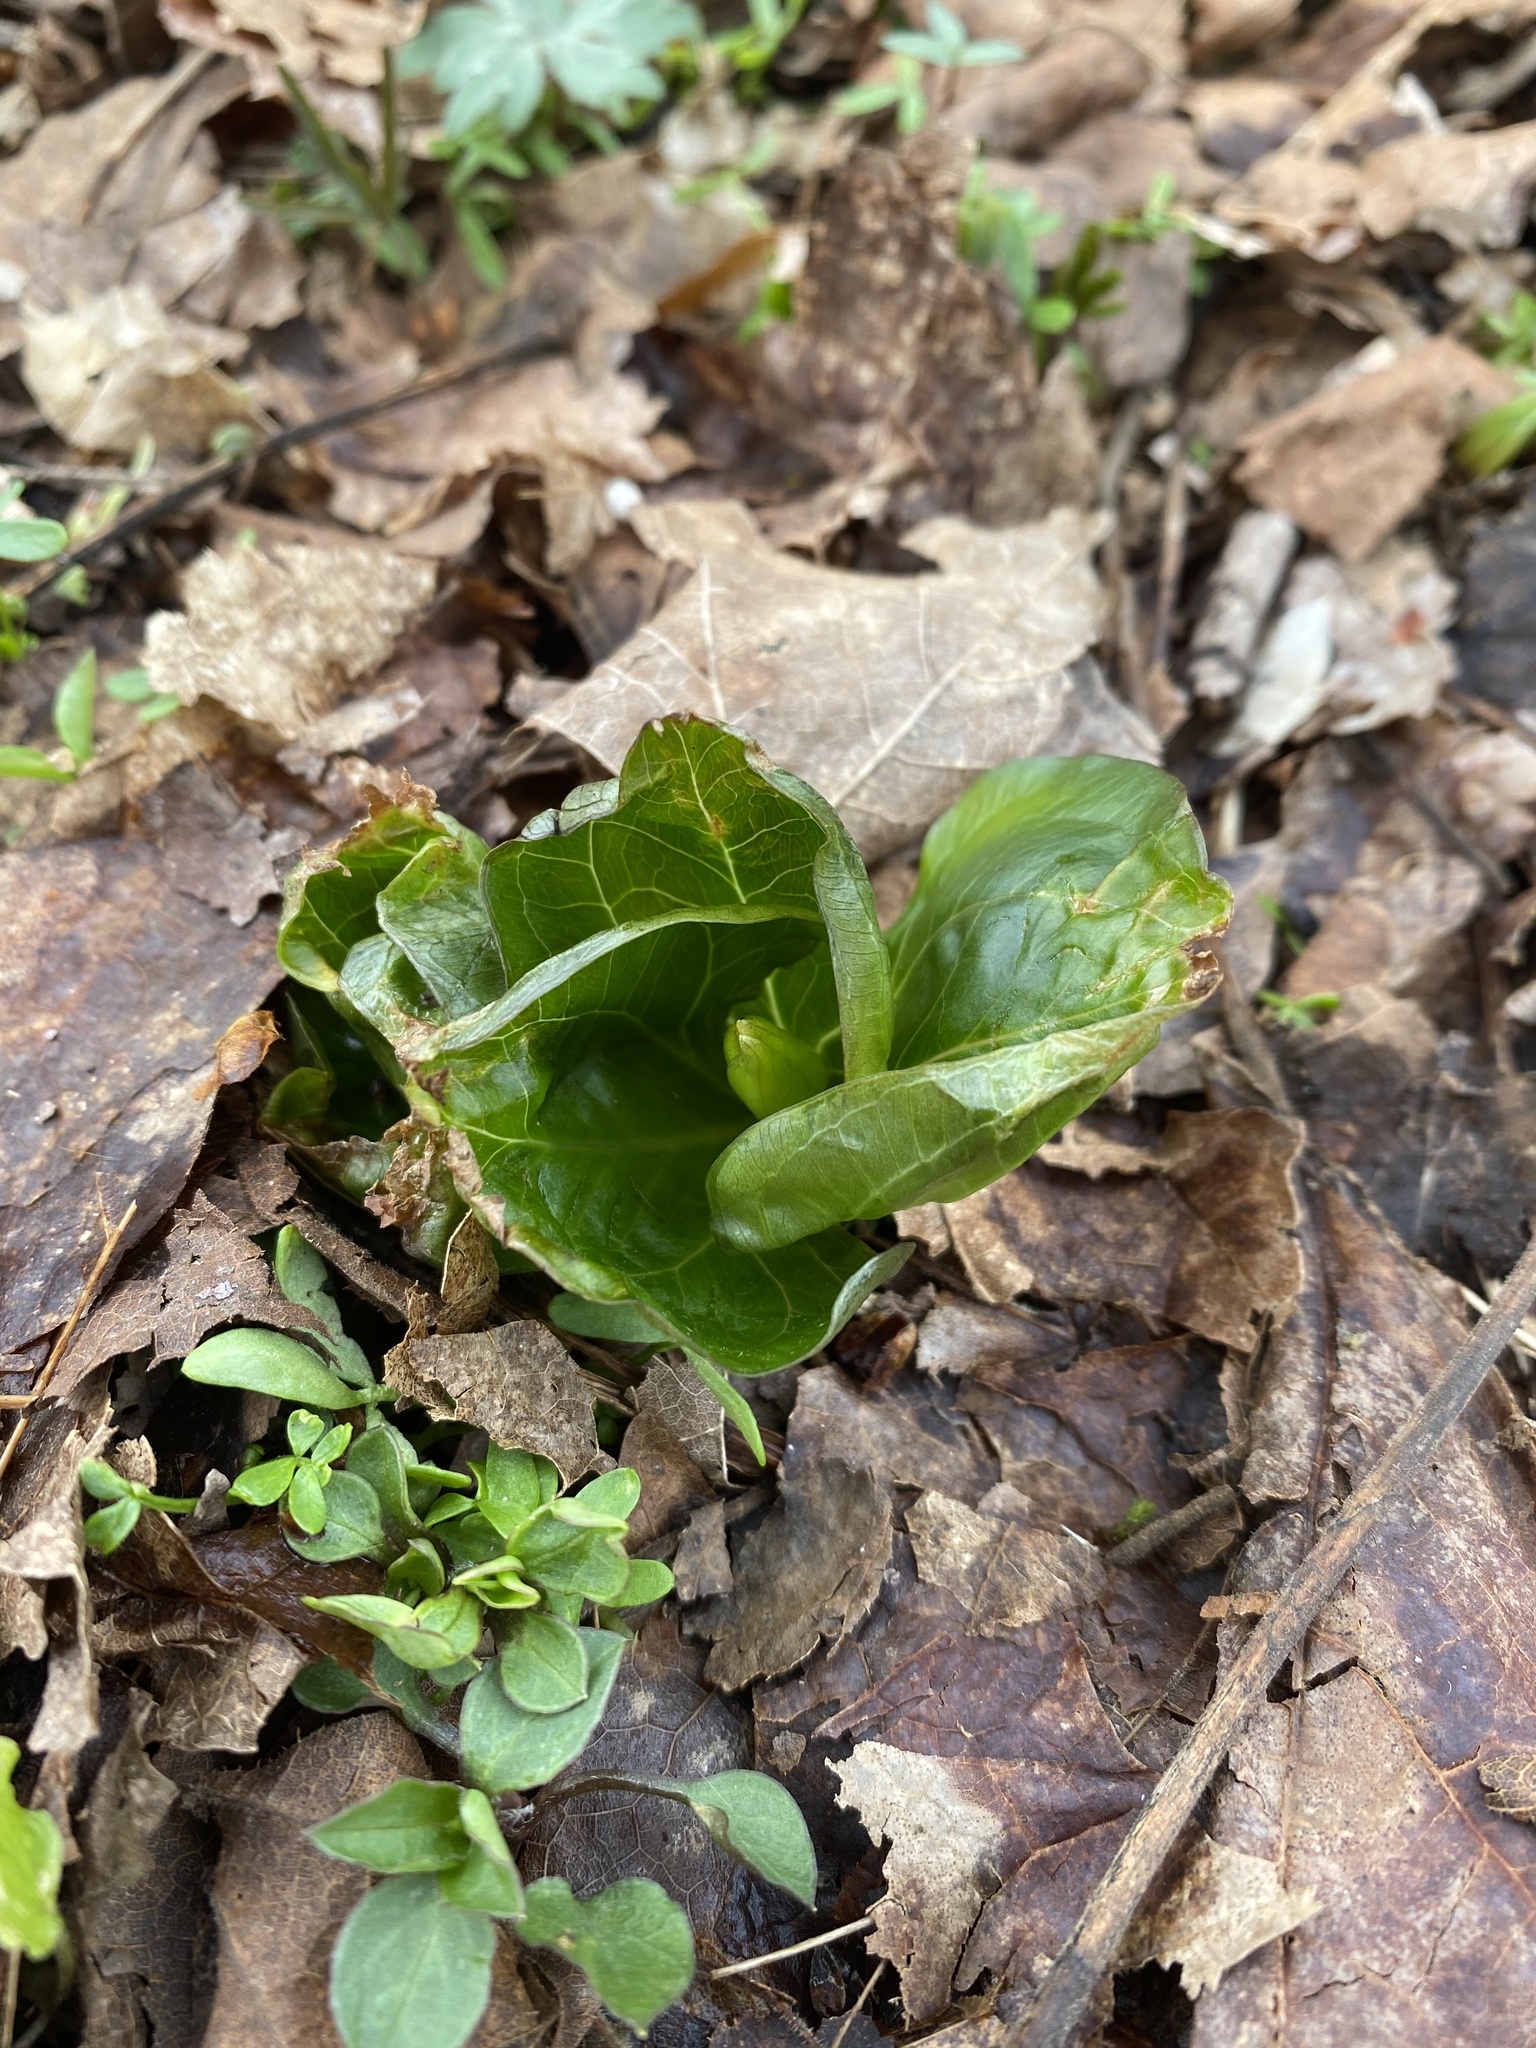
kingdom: Plantae
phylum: Tracheophyta
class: Liliopsida
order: Liliales
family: Melanthiaceae
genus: Trillium
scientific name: Trillium grandiflorum
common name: Great white trillium
